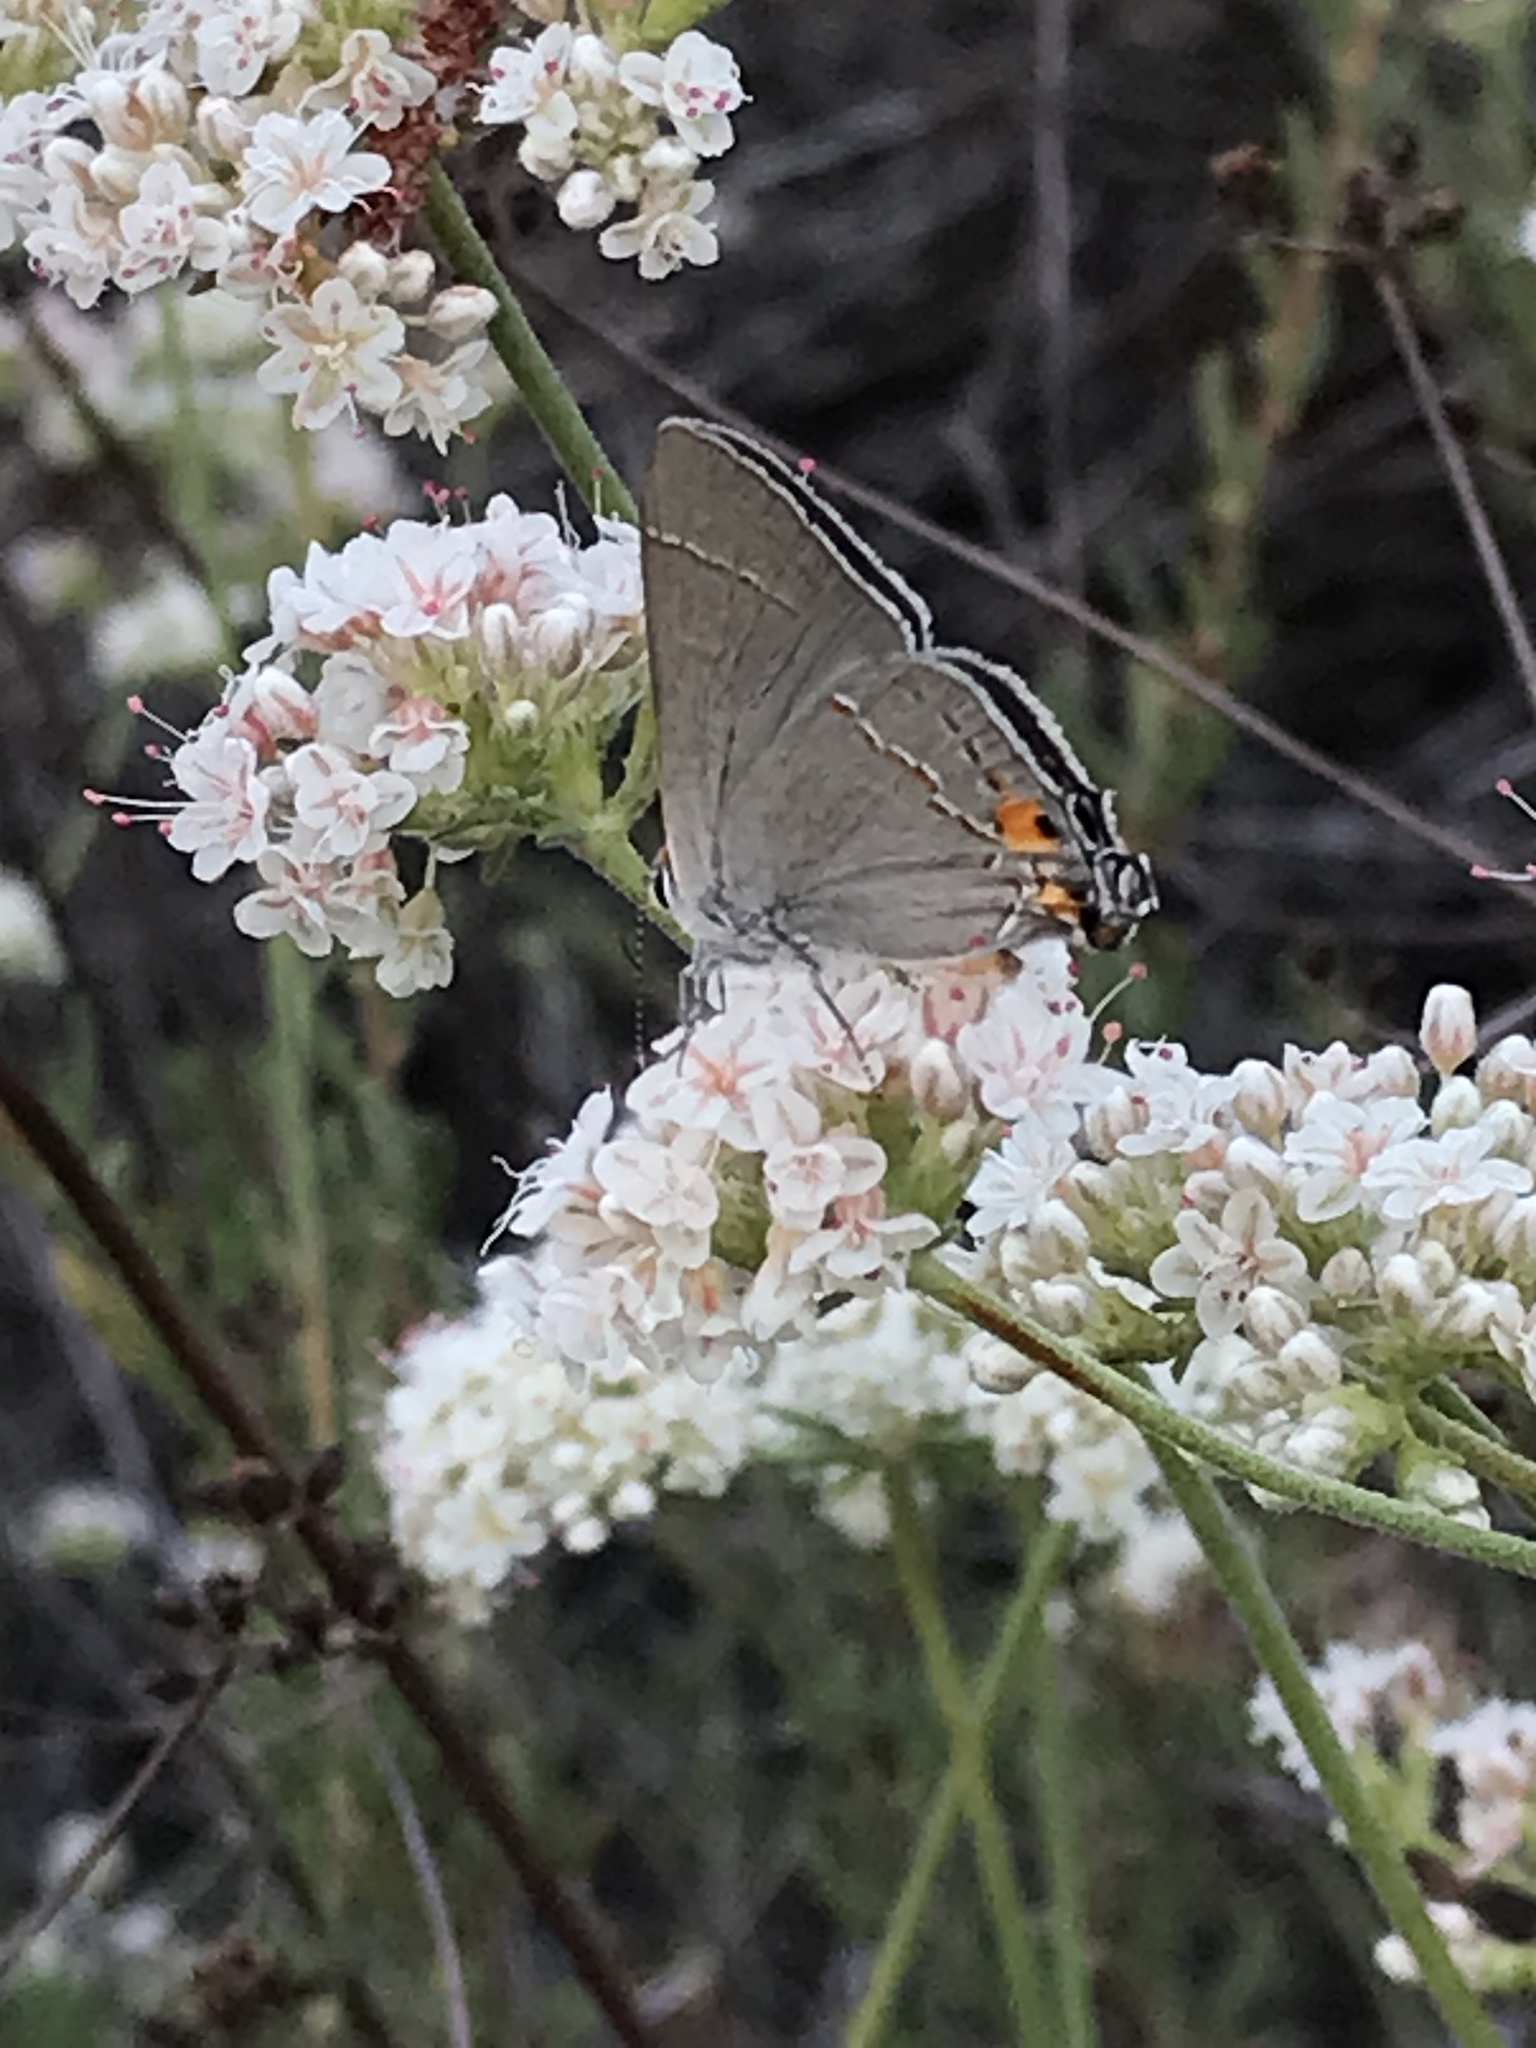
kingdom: Animalia
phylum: Arthropoda
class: Insecta
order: Lepidoptera
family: Lycaenidae
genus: Strymon
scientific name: Strymon melinus
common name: Gray hairstreak
